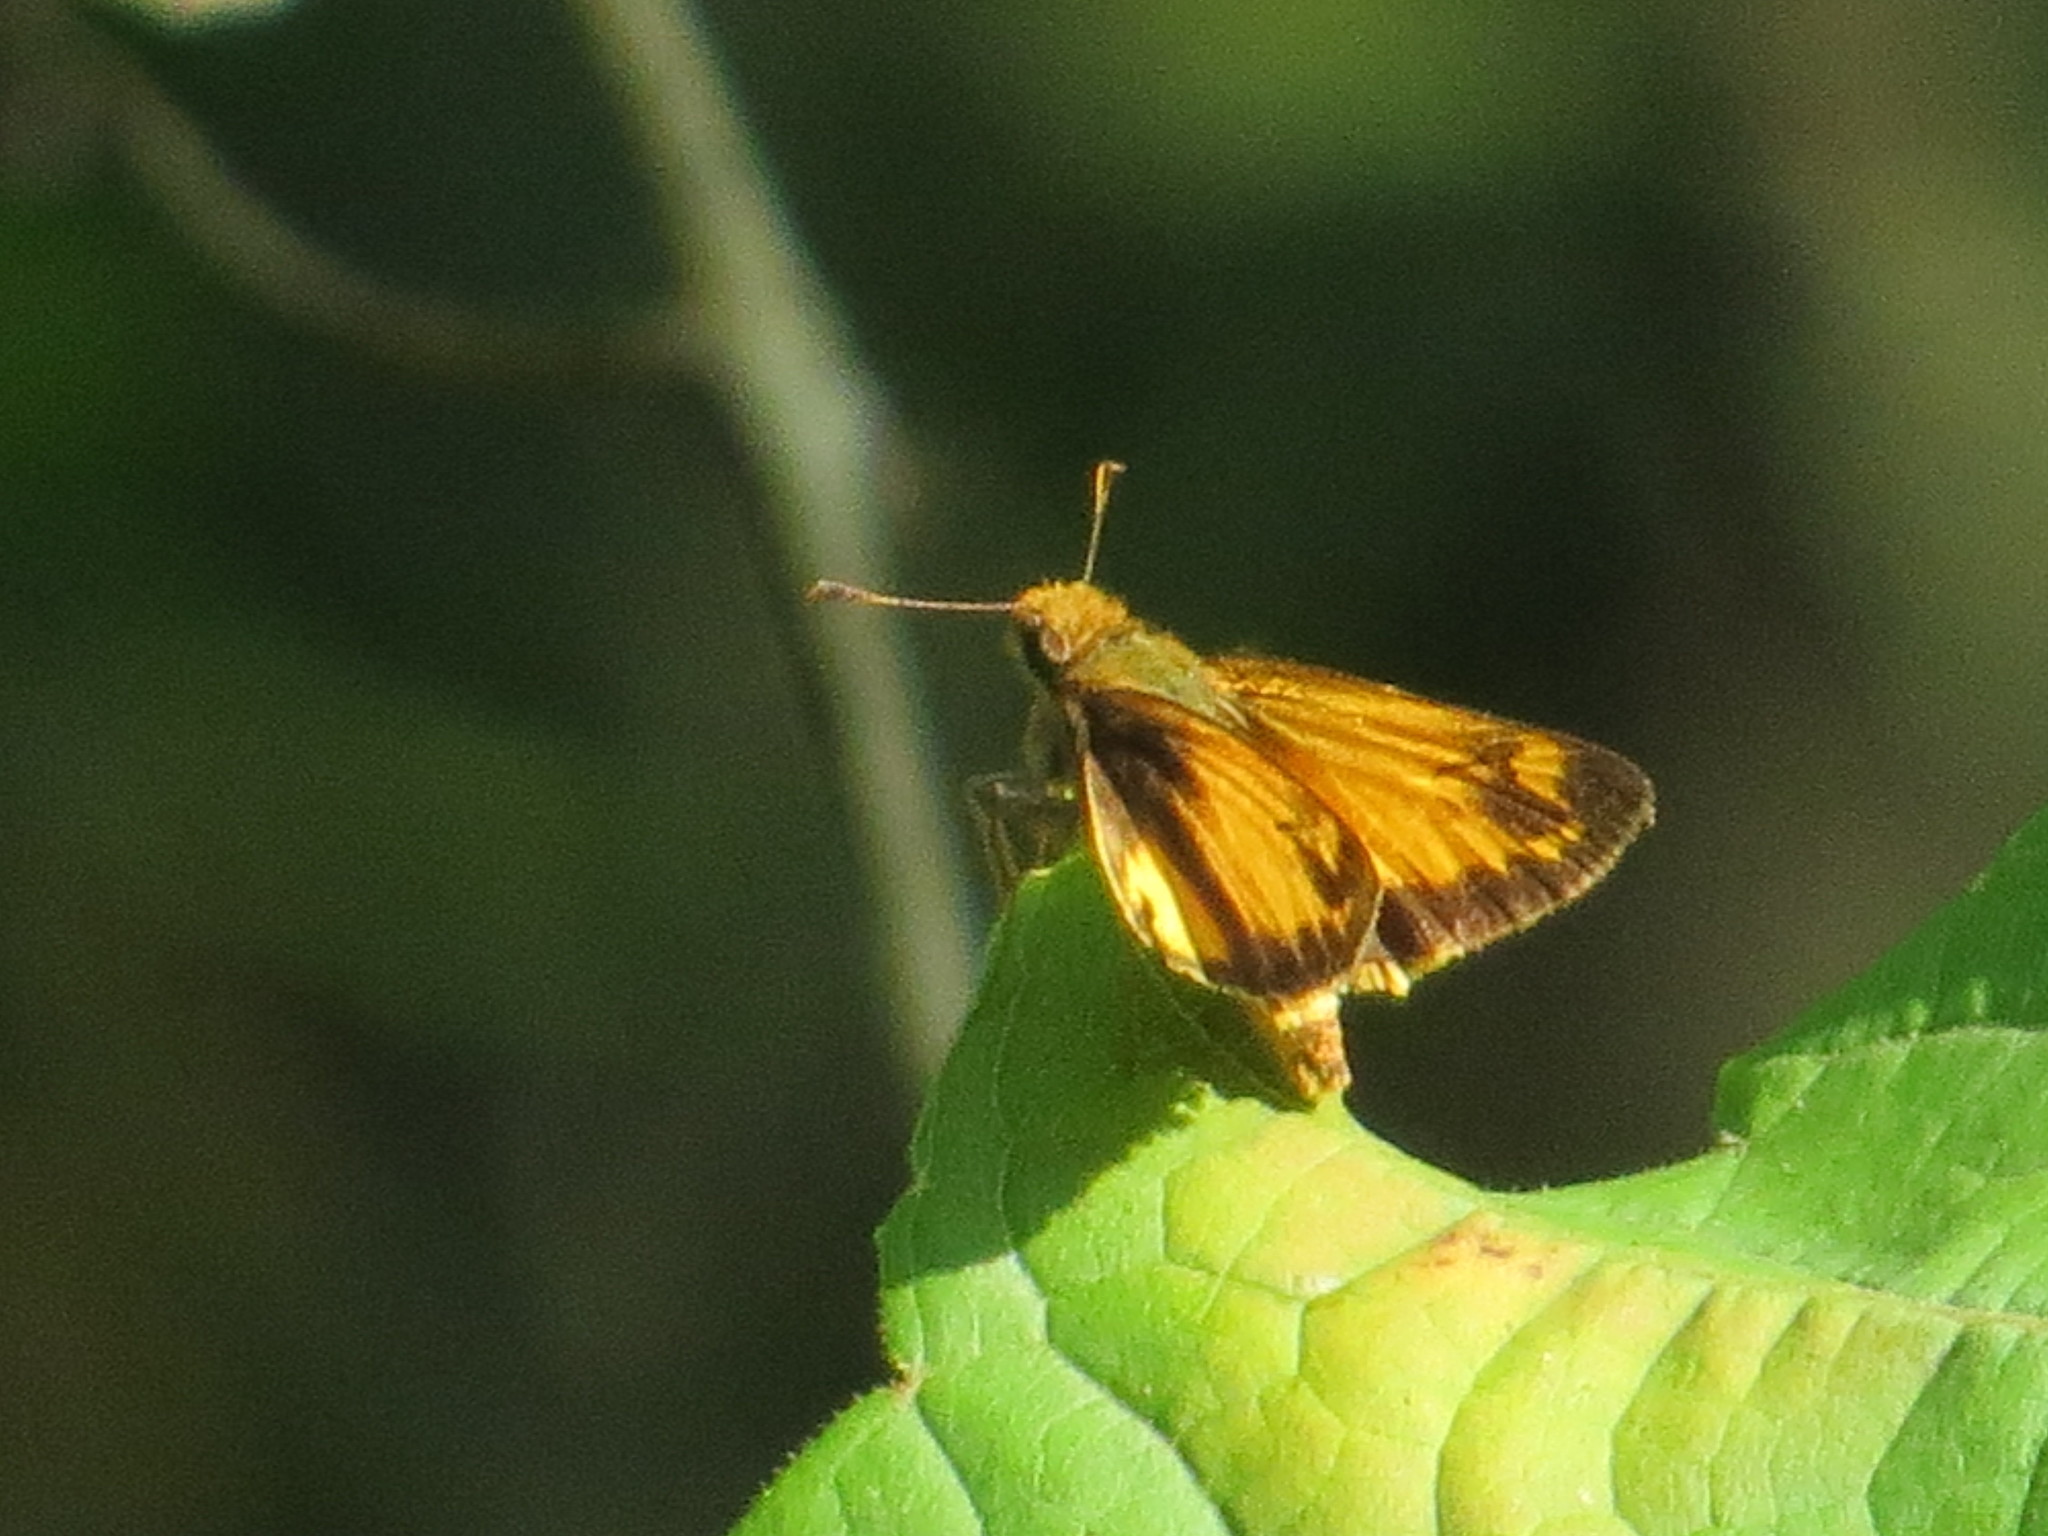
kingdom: Animalia
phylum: Arthropoda
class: Insecta
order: Lepidoptera
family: Hesperiidae
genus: Lon
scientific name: Lon zabulon
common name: Zabulon skipper
